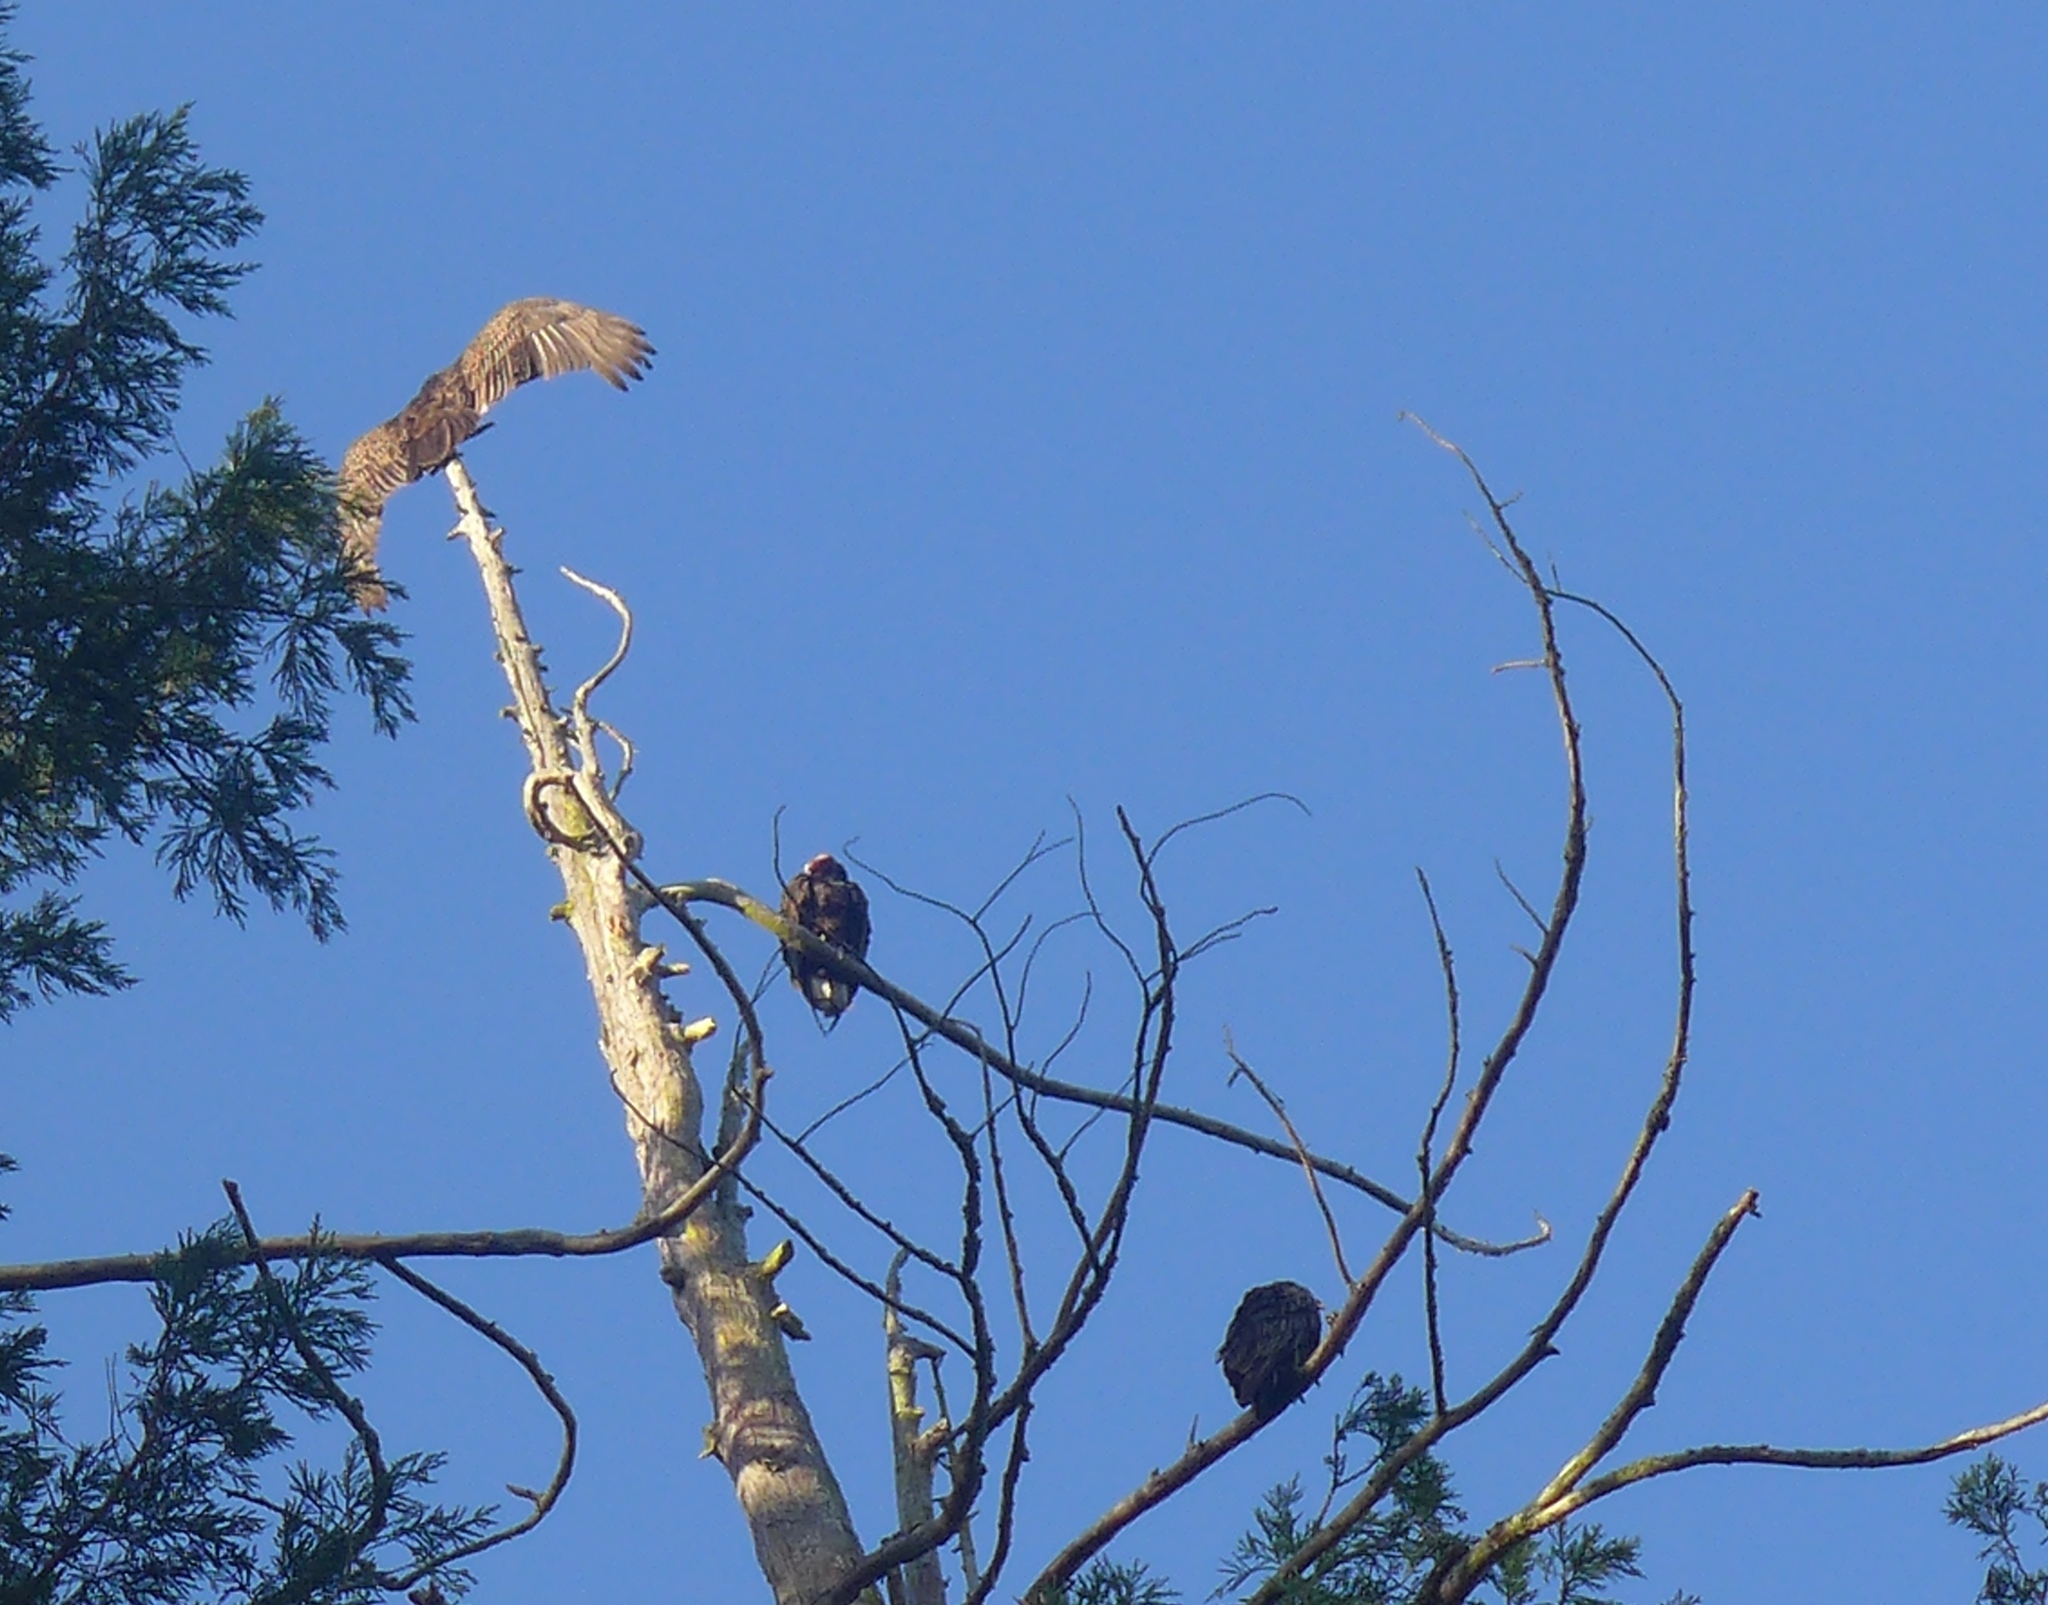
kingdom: Animalia
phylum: Chordata
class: Aves
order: Accipitriformes
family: Cathartidae
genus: Cathartes
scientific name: Cathartes aura
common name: Turkey vulture
